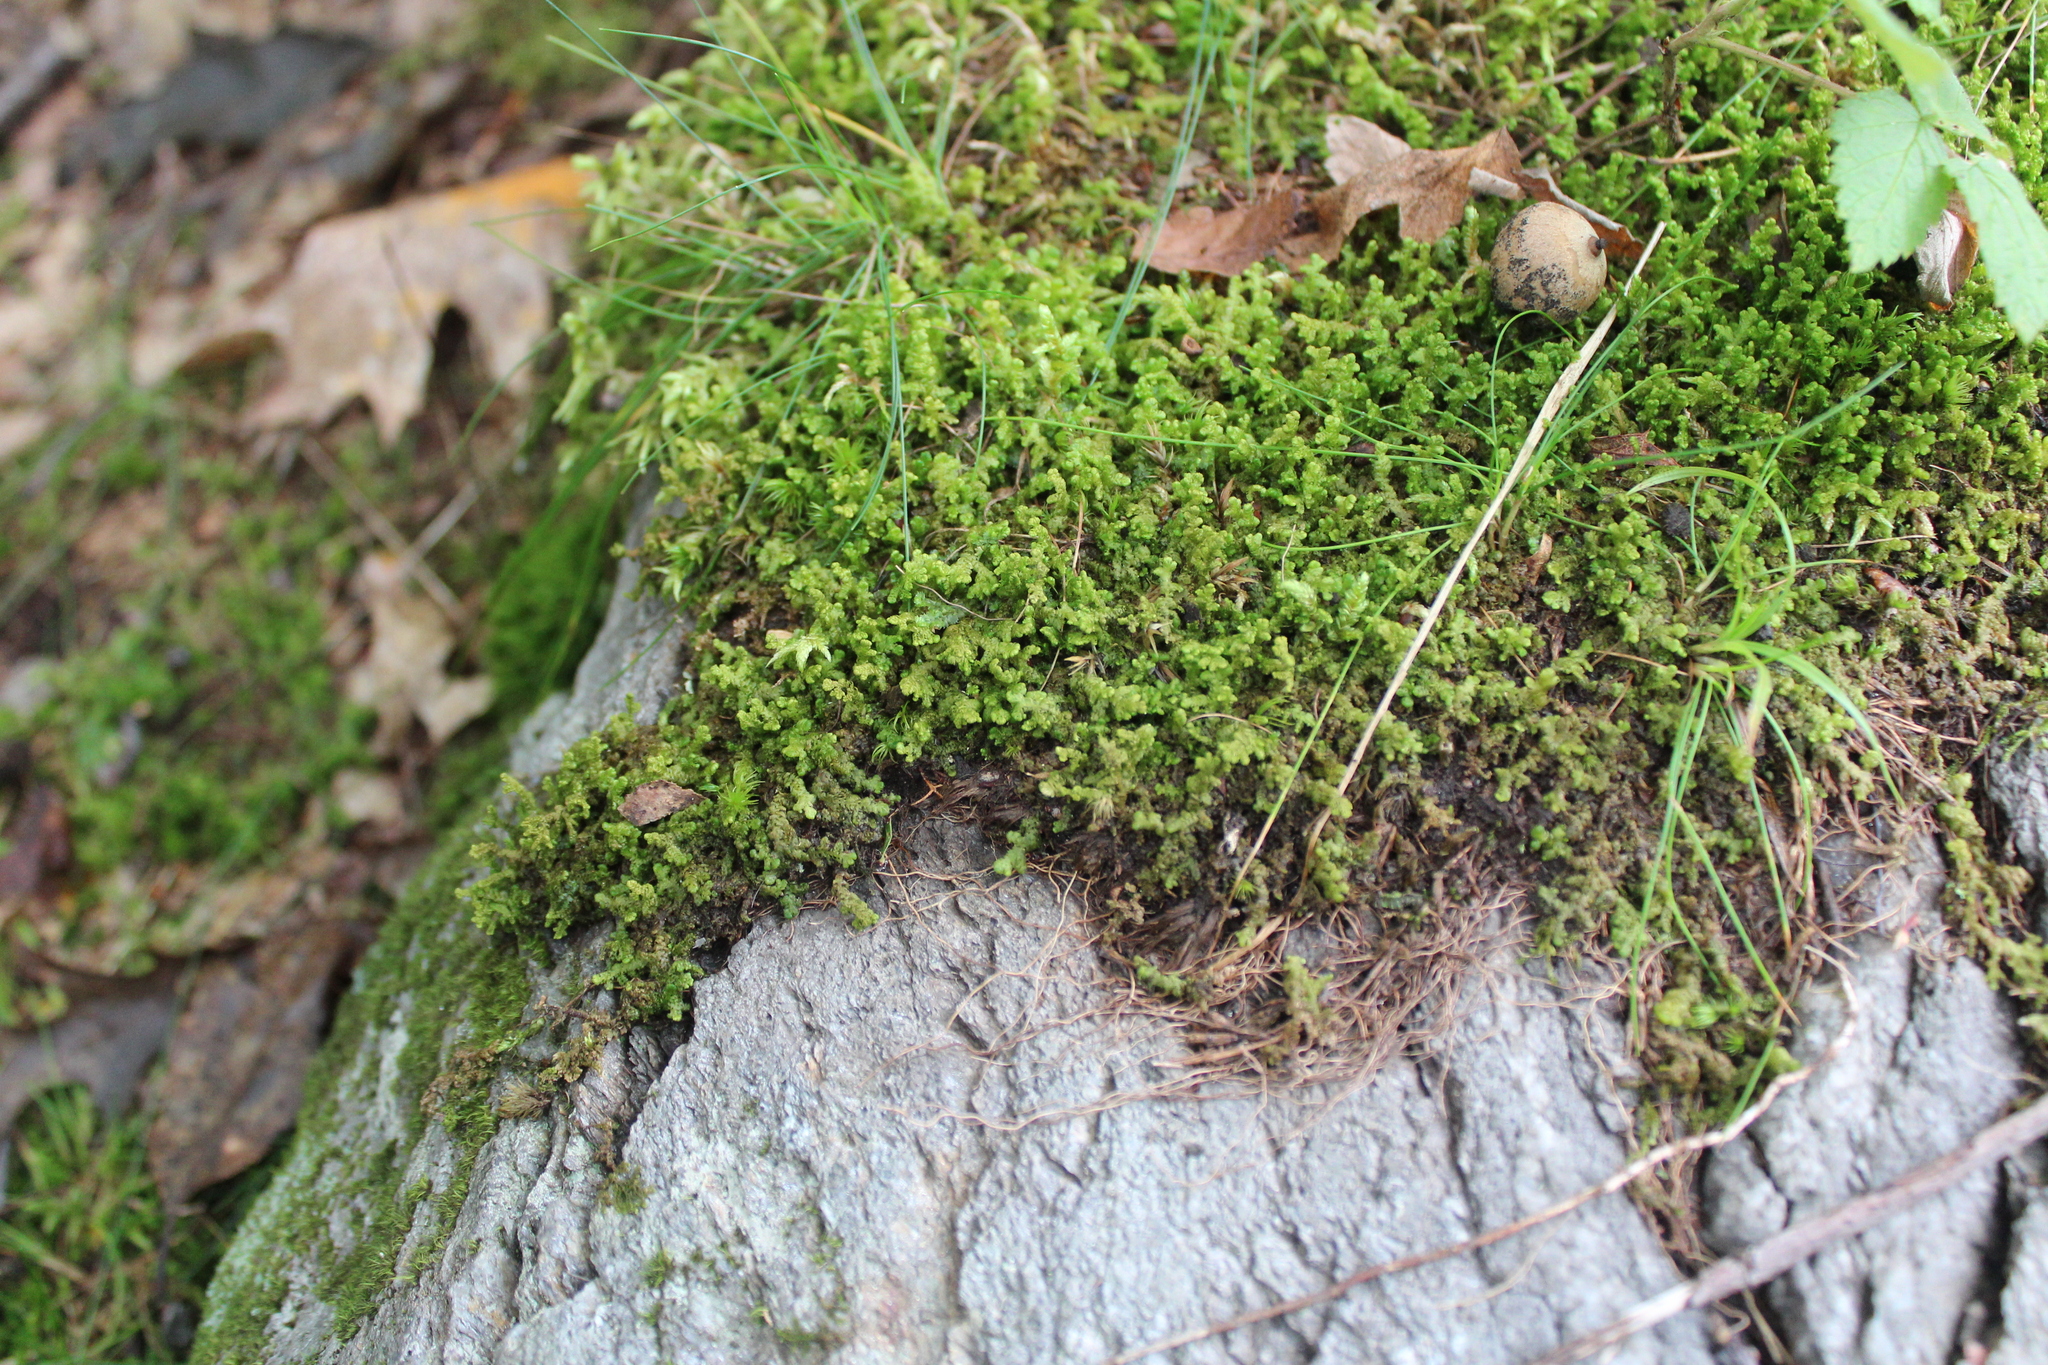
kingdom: Plantae
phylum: Marchantiophyta
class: Jungermanniopsida
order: Ptilidiales
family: Ptilidiaceae
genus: Ptilidium
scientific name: Ptilidium ciliare
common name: Ciliate fringewort
